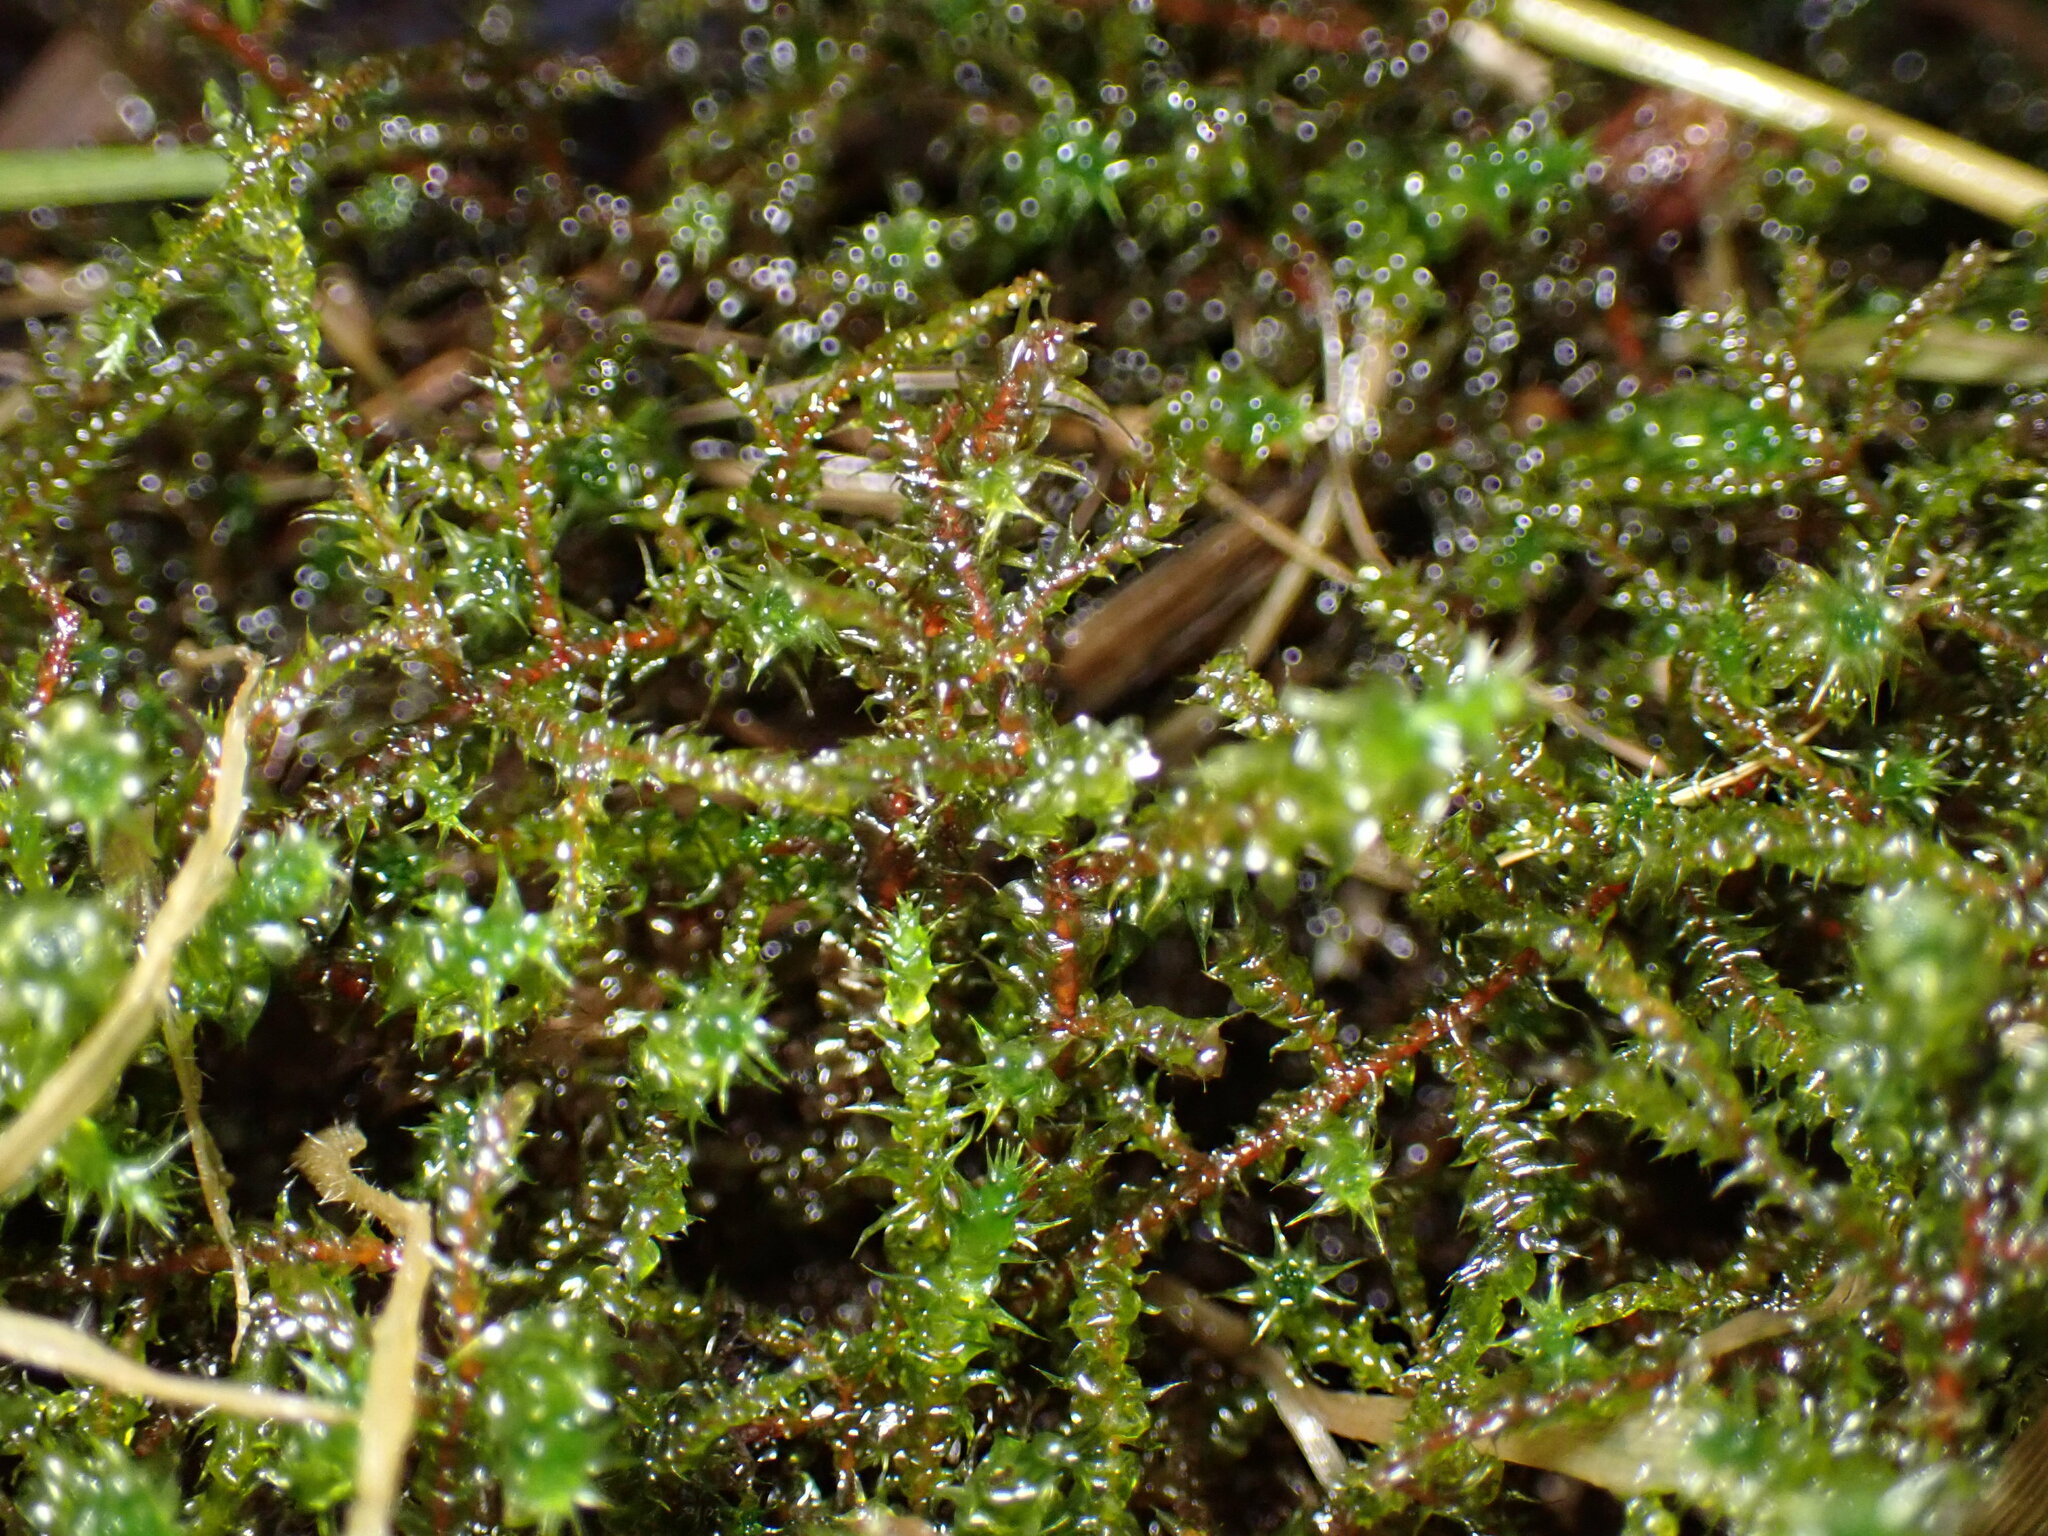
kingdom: Plantae
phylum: Bryophyta
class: Bryopsida
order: Hypnales
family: Hylocomiaceae
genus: Rhytidiadelphus
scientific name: Rhytidiadelphus squarrosus
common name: Springy turf-moss
